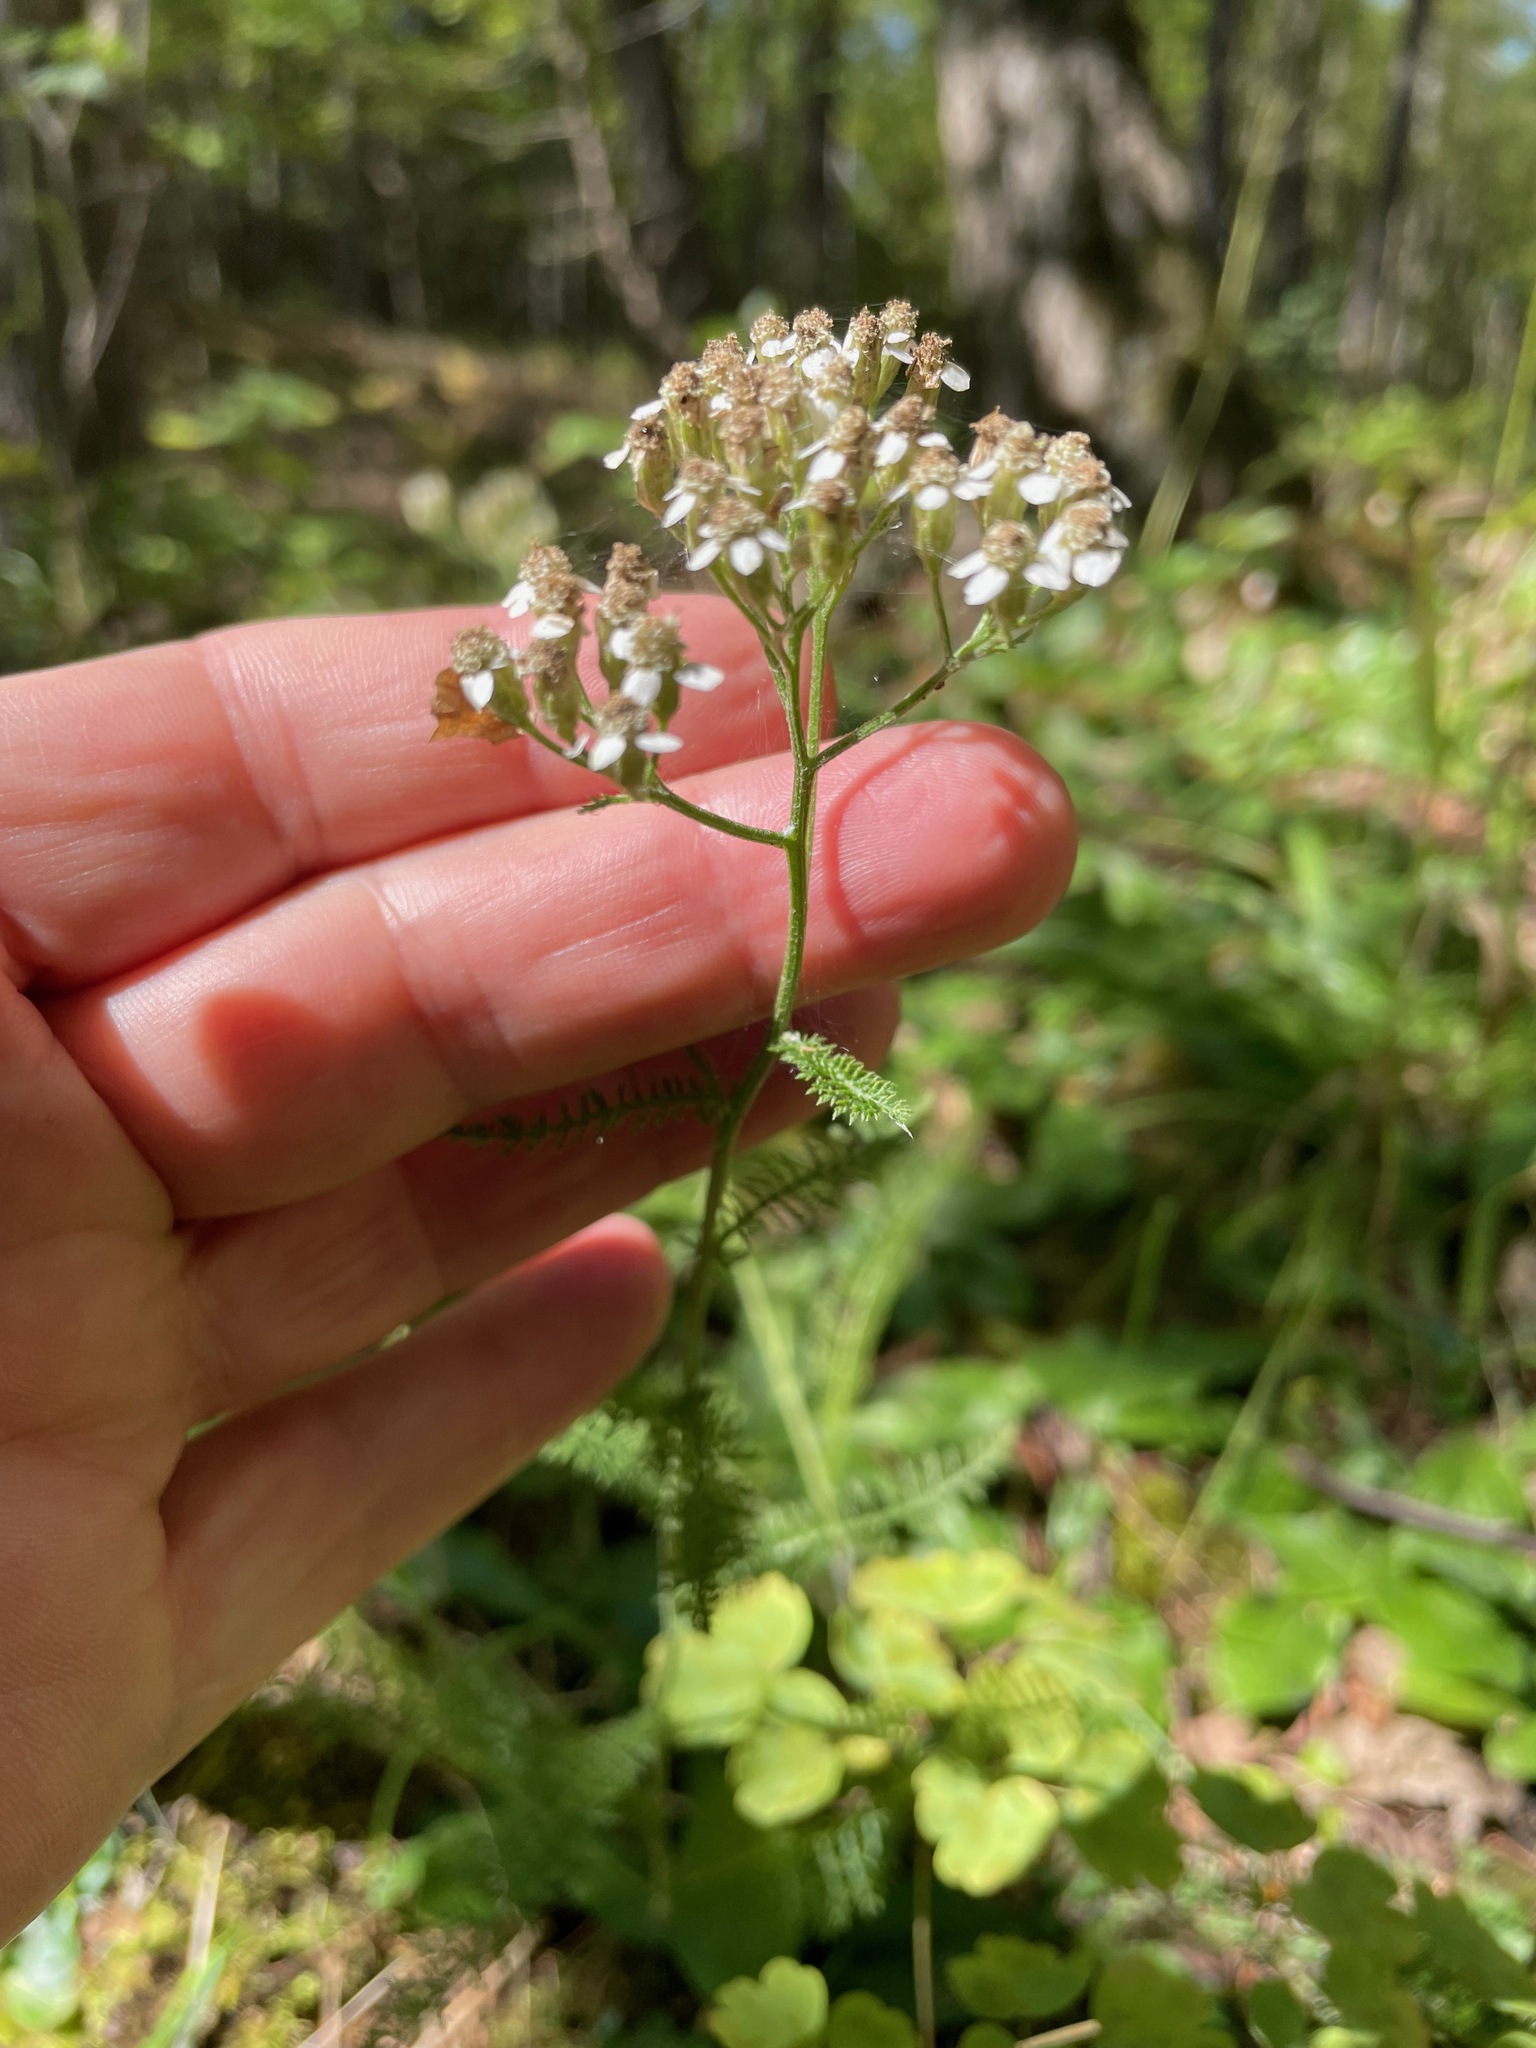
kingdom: Plantae
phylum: Tracheophyta
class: Magnoliopsida
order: Asterales
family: Asteraceae
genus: Achillea
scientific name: Achillea millefolium
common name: Yarrow
